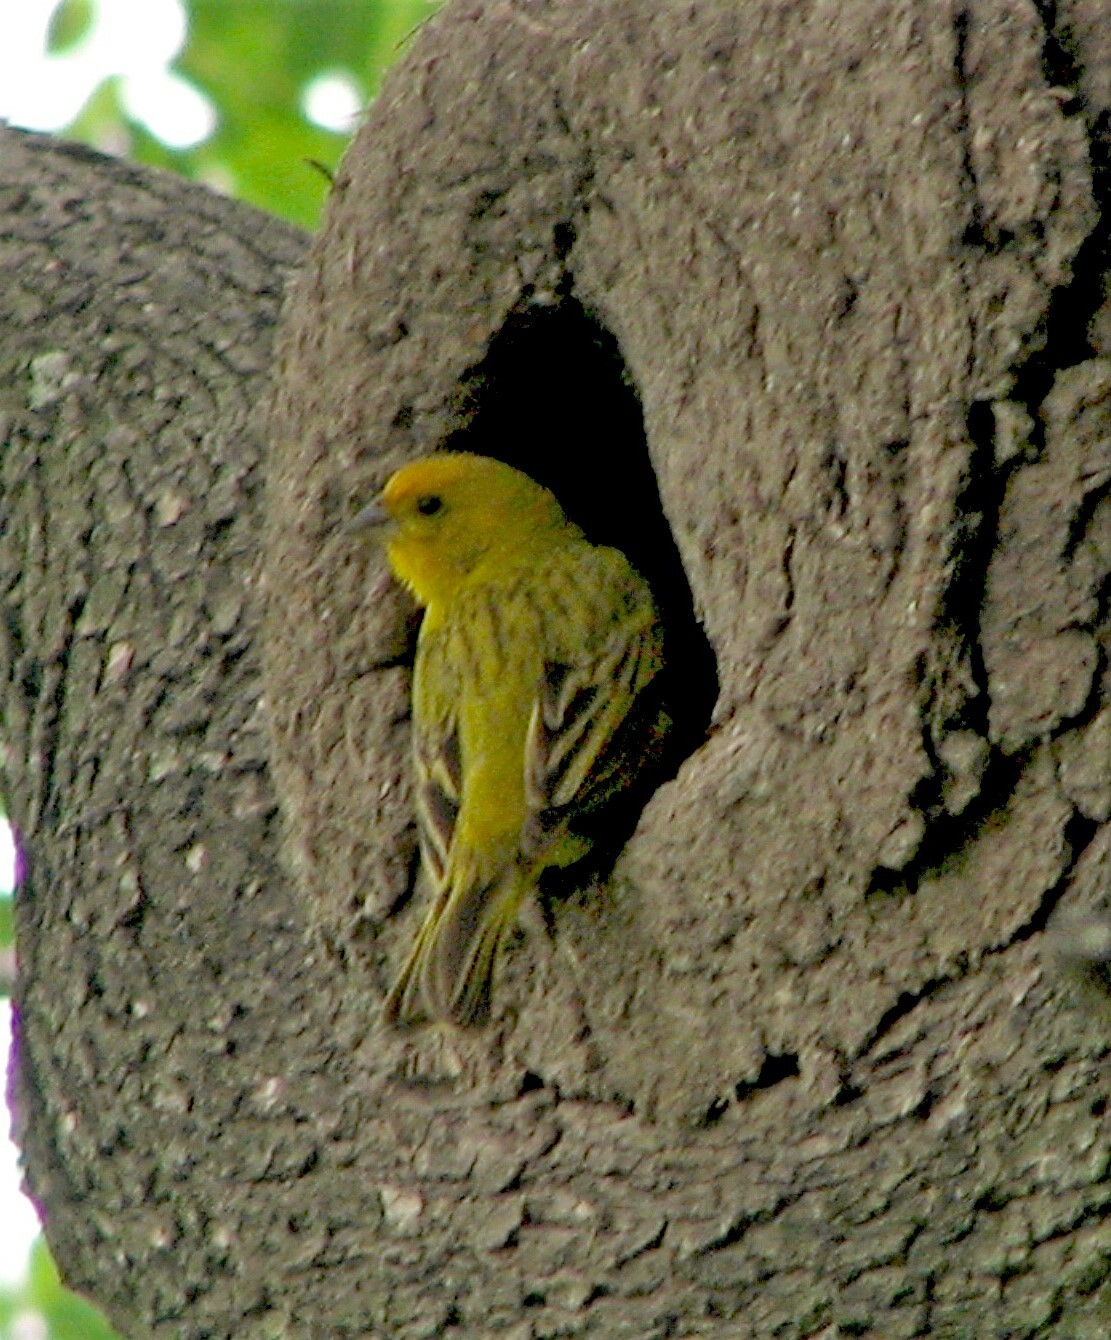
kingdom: Animalia
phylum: Chordata
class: Aves
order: Passeriformes
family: Thraupidae
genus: Sicalis
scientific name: Sicalis flaveola
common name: Saffron finch
